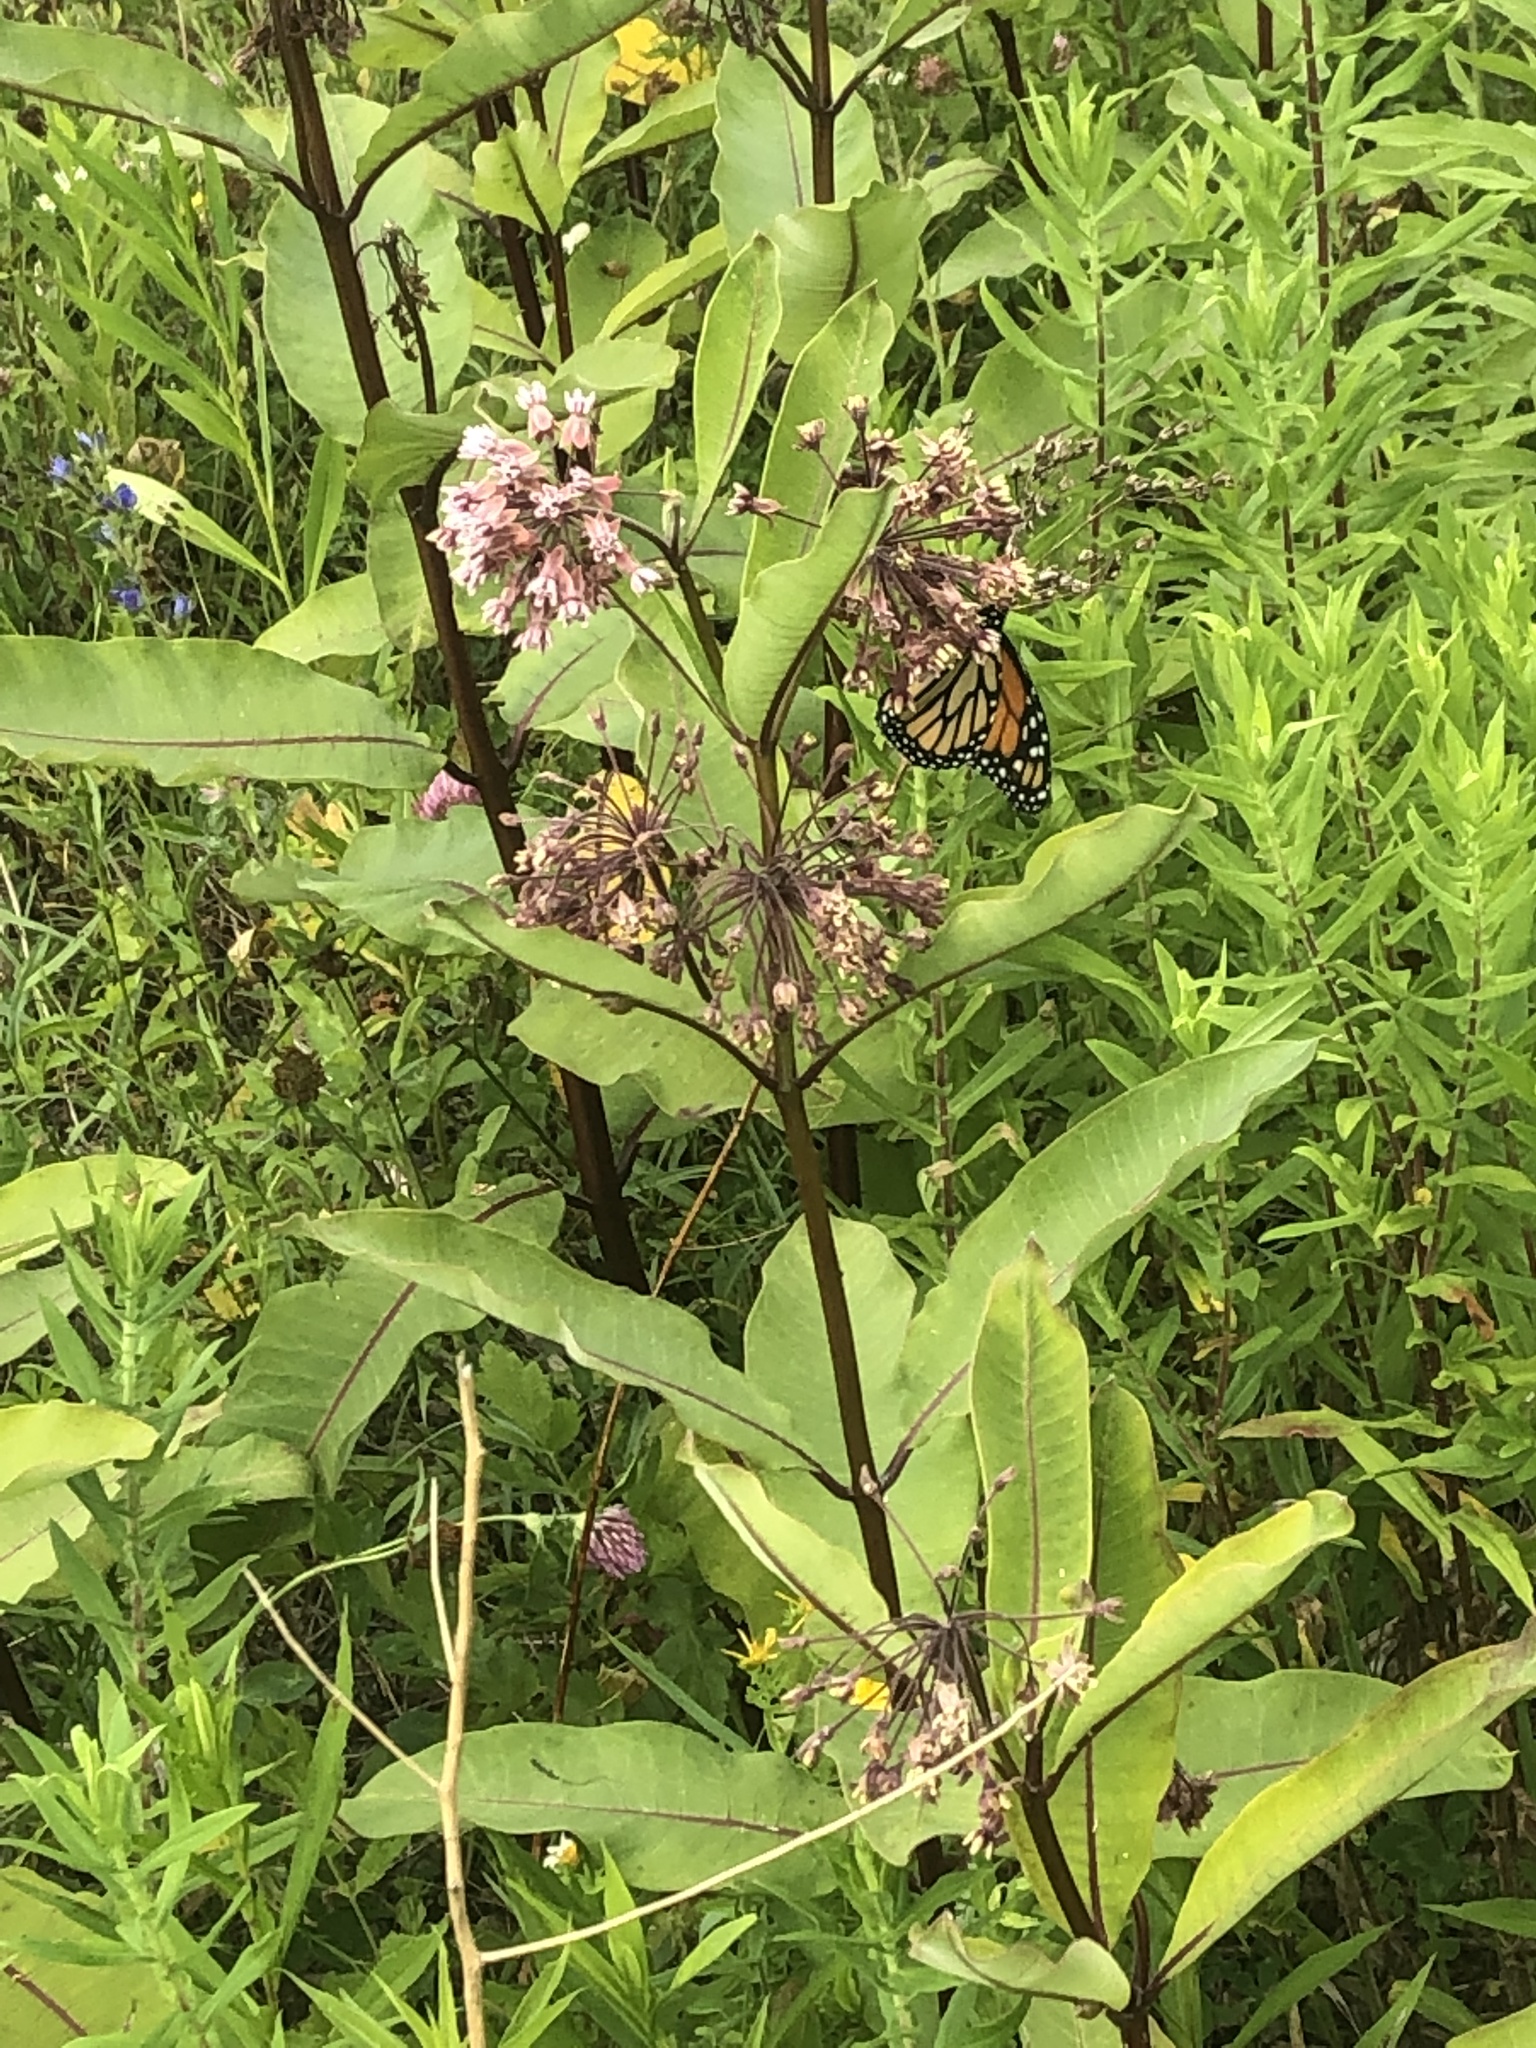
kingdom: Animalia
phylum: Arthropoda
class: Insecta
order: Lepidoptera
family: Nymphalidae
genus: Danaus
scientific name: Danaus plexippus
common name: Monarch
